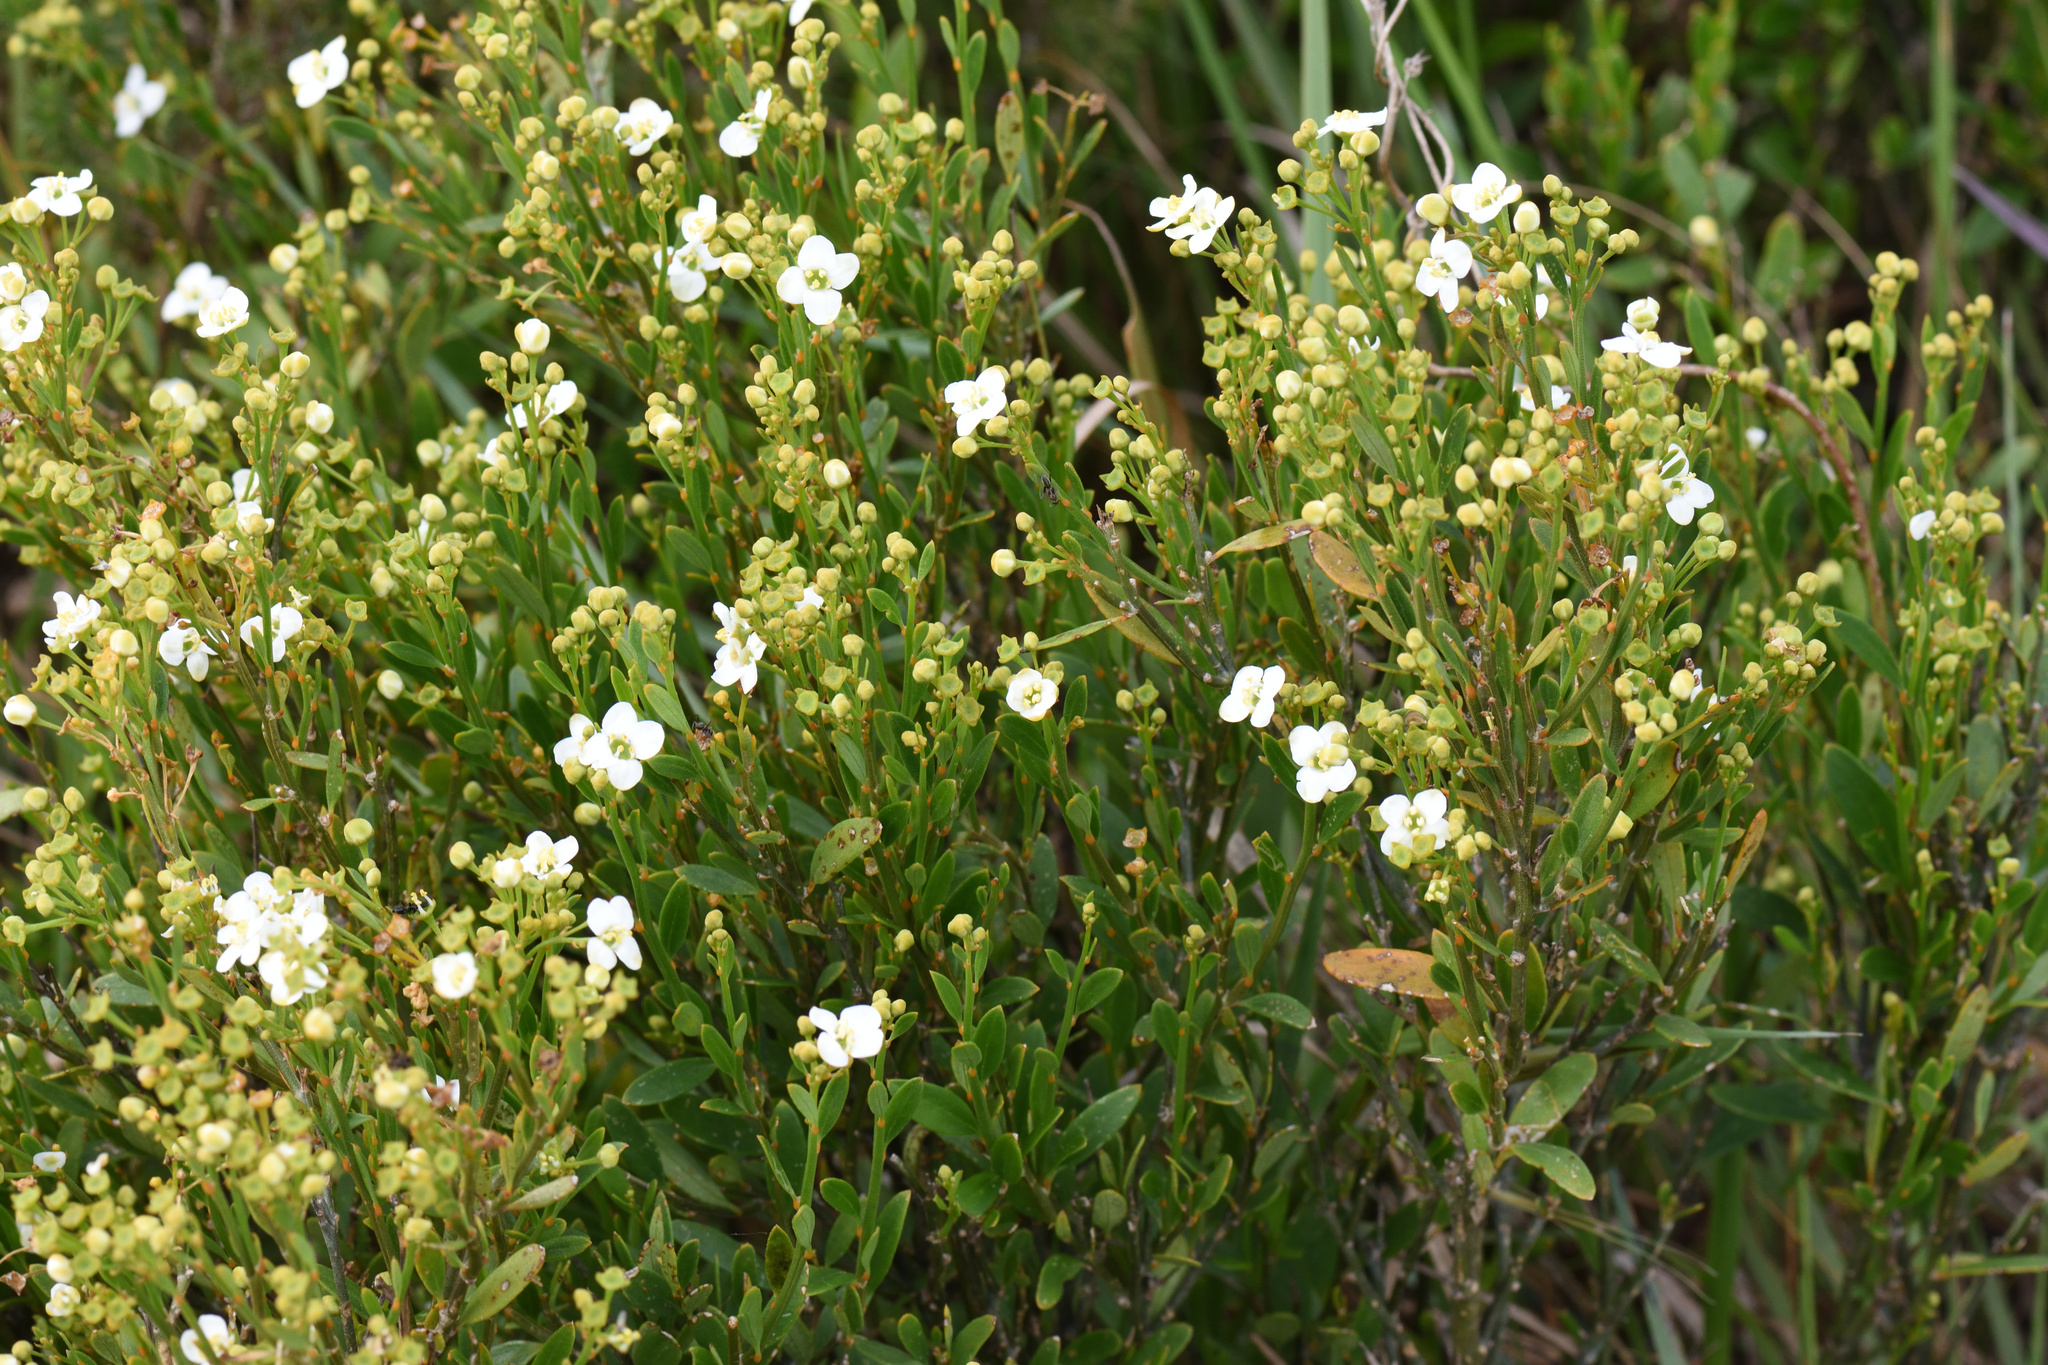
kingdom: Plantae
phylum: Tracheophyta
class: Magnoliopsida
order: Solanales
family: Montiniaceae
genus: Montinia
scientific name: Montinia caryophyllacea
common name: Wild clove-bush
